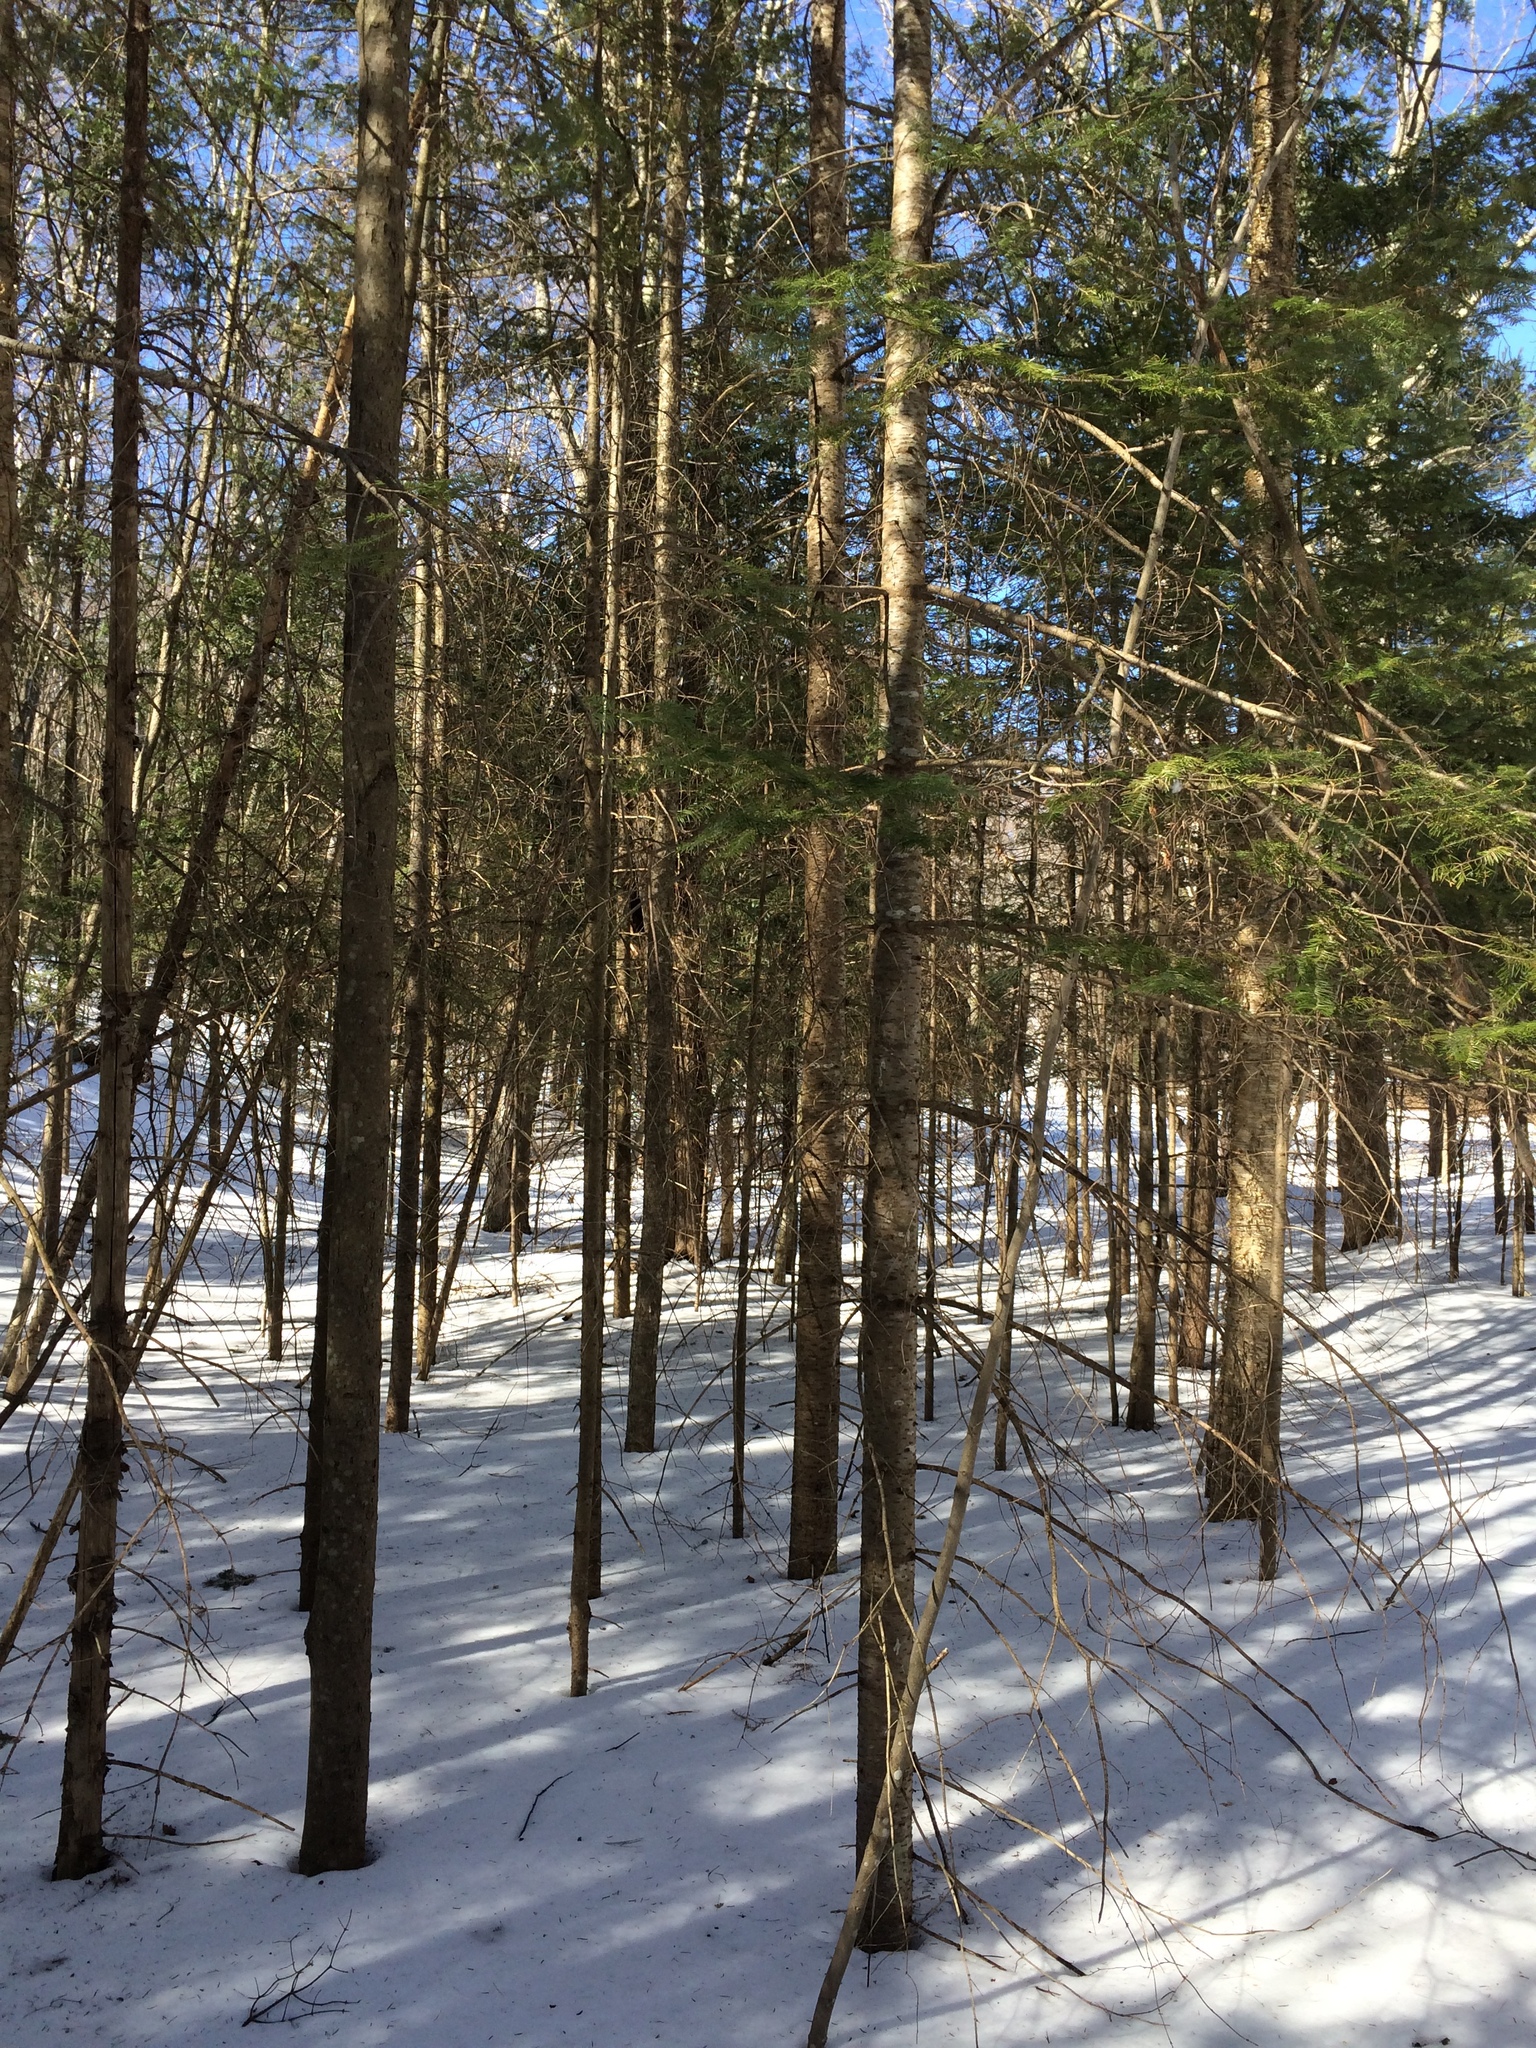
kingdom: Plantae
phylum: Tracheophyta
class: Pinopsida
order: Pinales
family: Pinaceae
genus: Abies
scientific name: Abies balsamea
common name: Balsam fir
